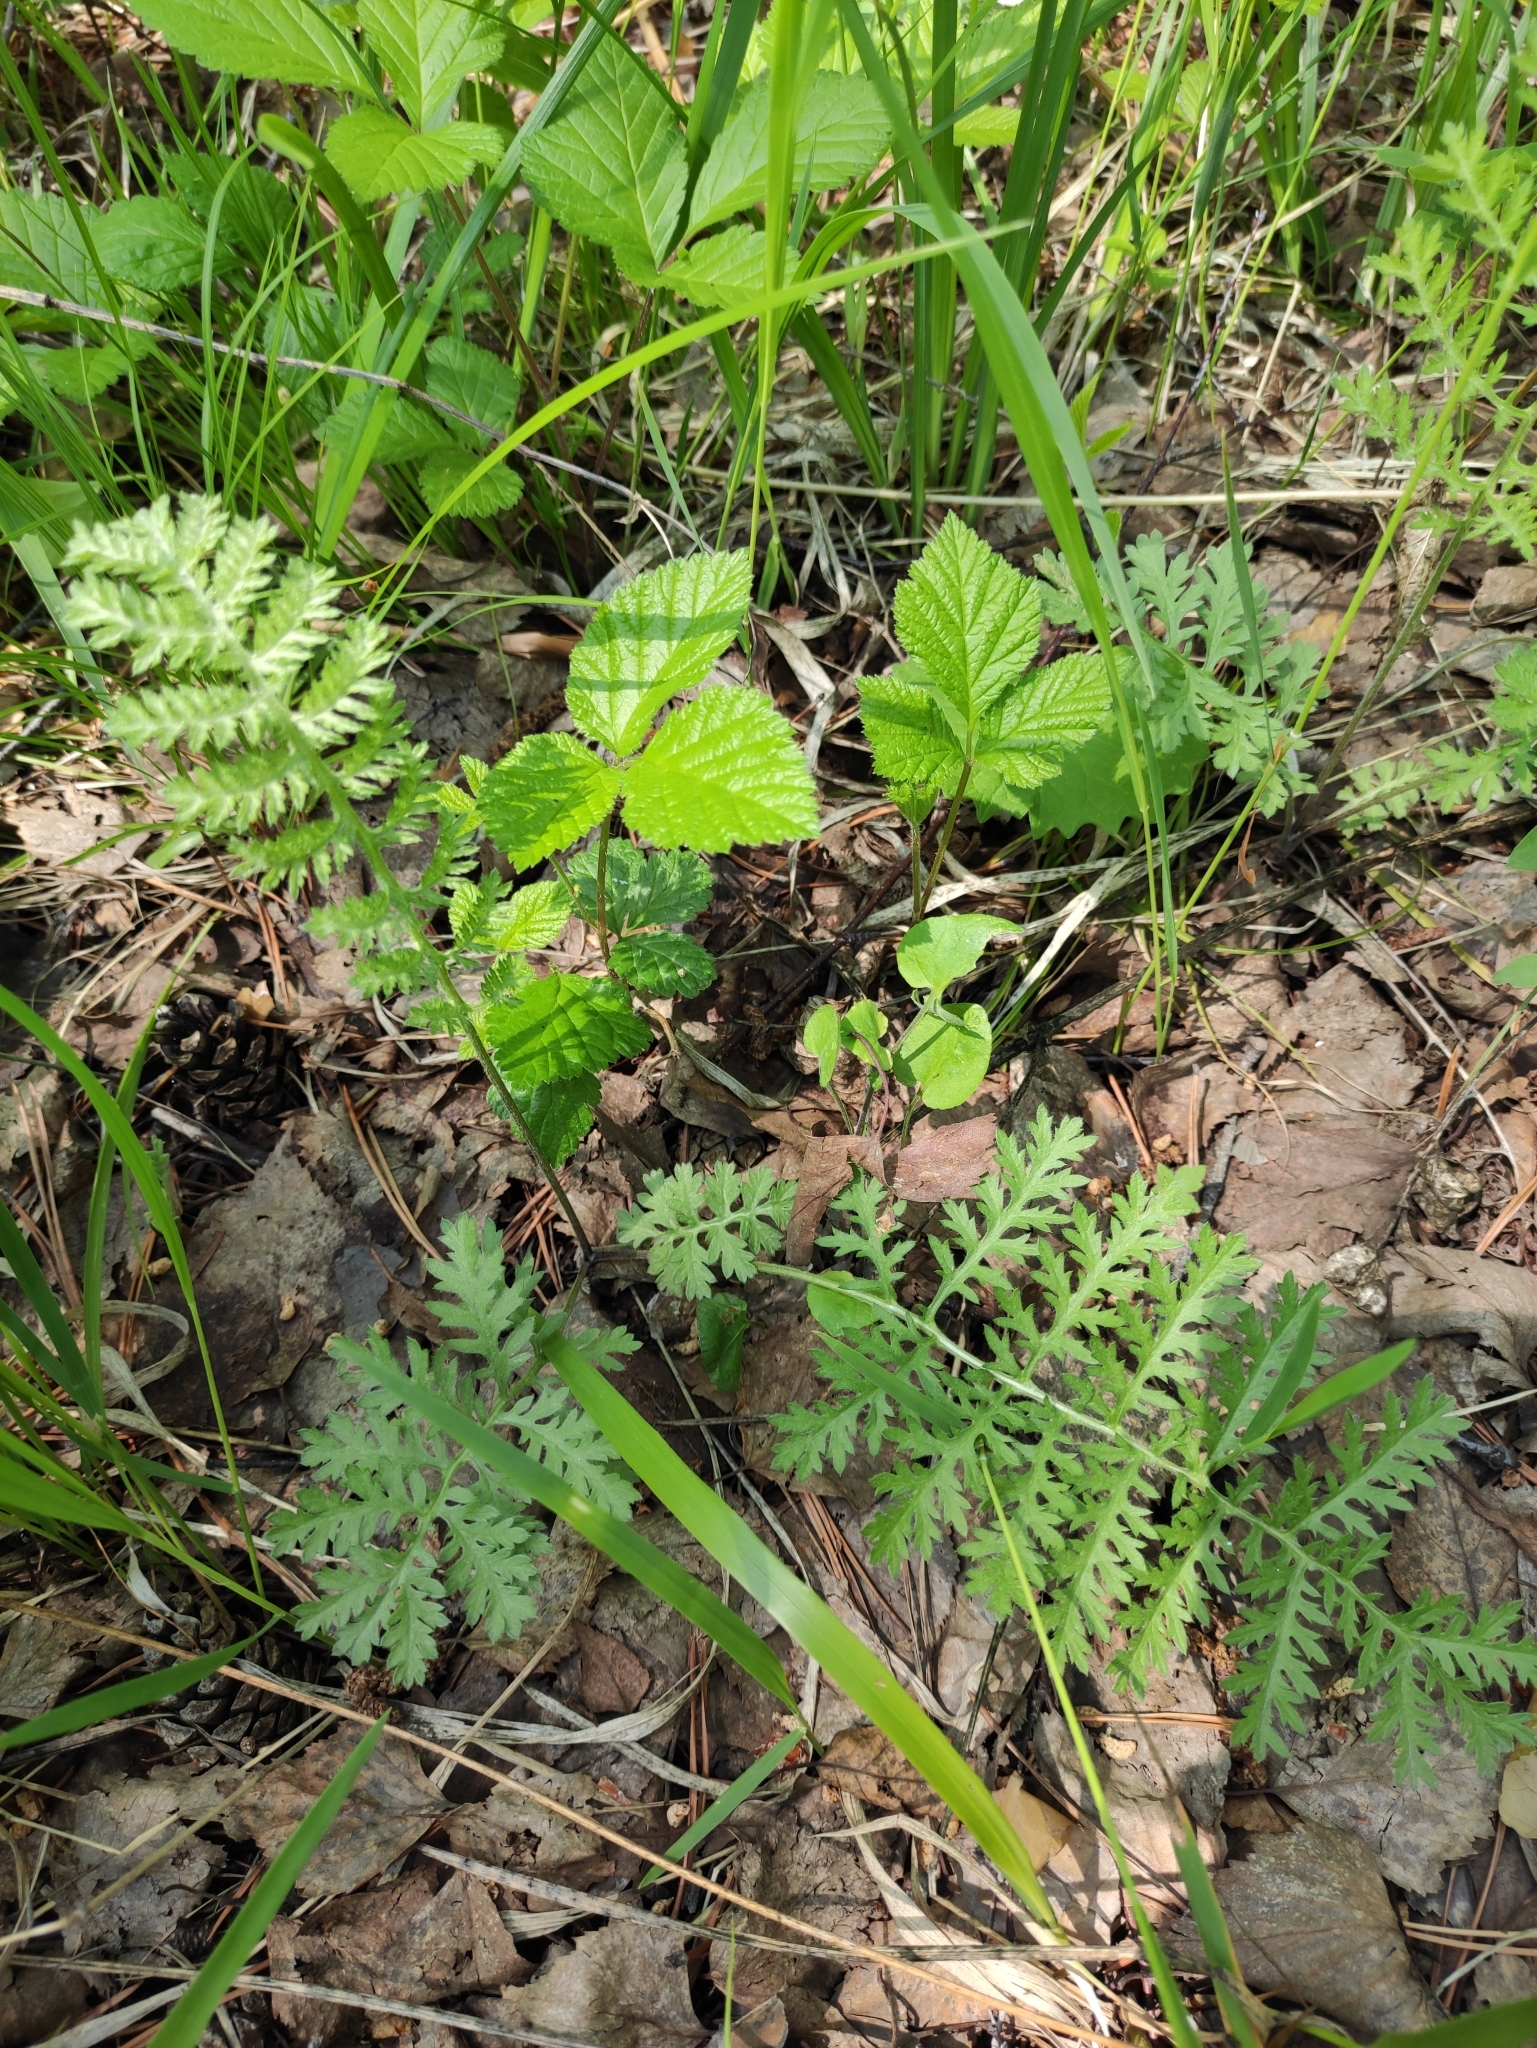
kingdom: Plantae
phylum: Tracheophyta
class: Magnoliopsida
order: Asterales
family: Asteraceae
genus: Artemisia
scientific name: Artemisia tanacetifolia
